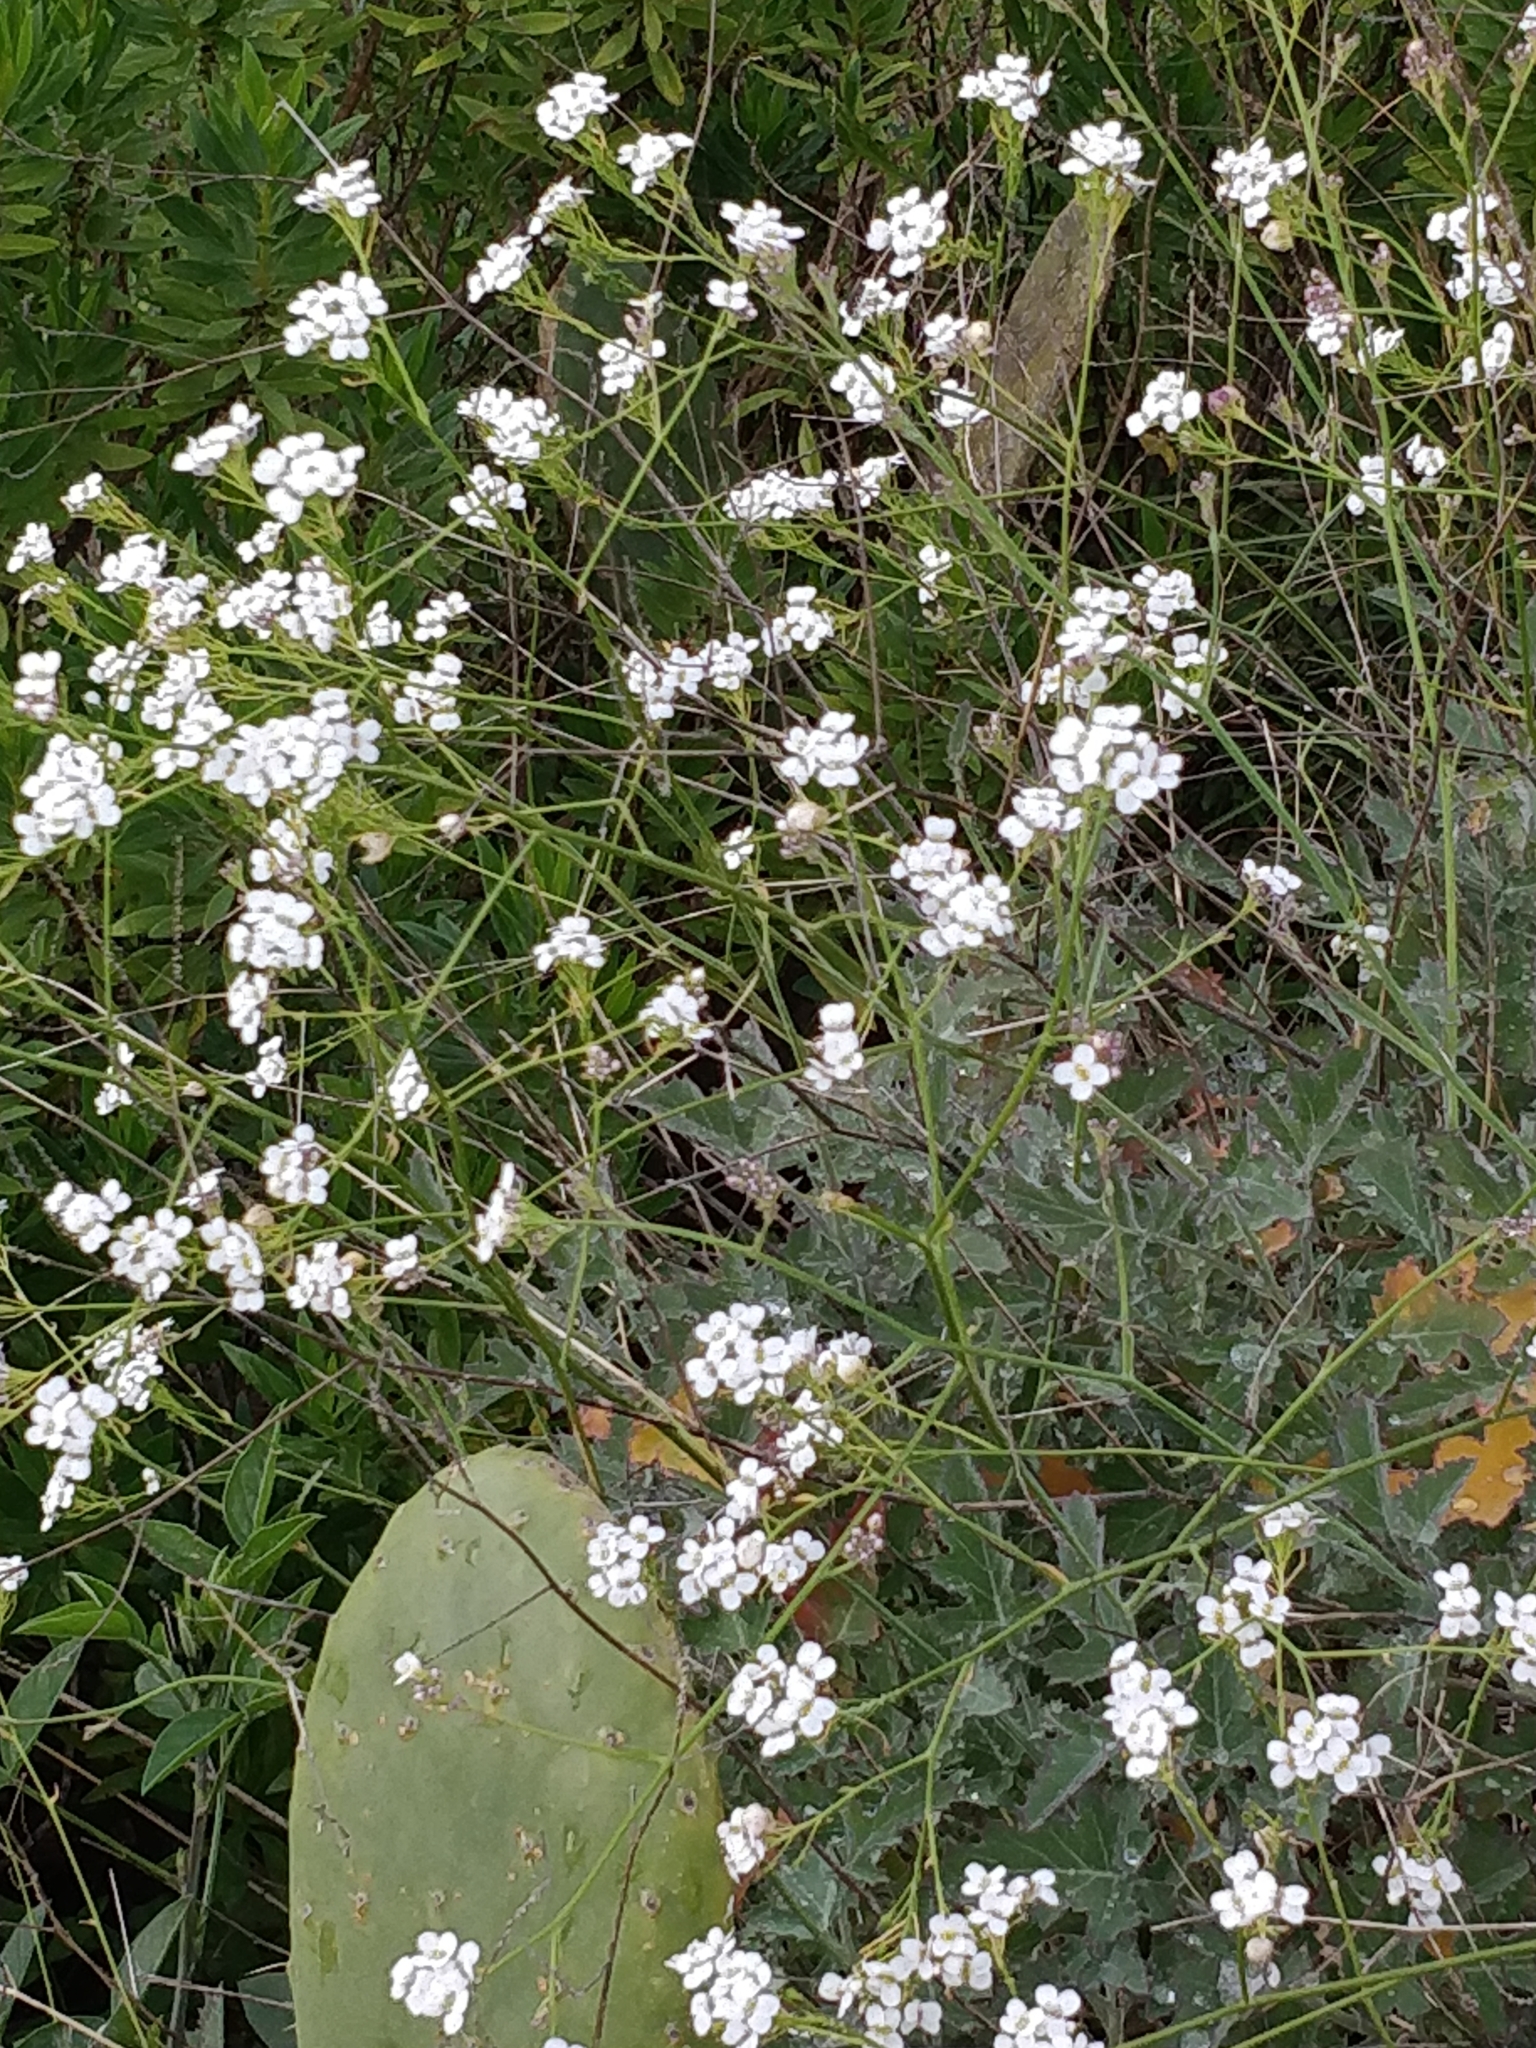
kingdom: Plantae
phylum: Tracheophyta
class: Magnoliopsida
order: Brassicales
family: Brassicaceae
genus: Crambe
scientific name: Crambe fruticosa
